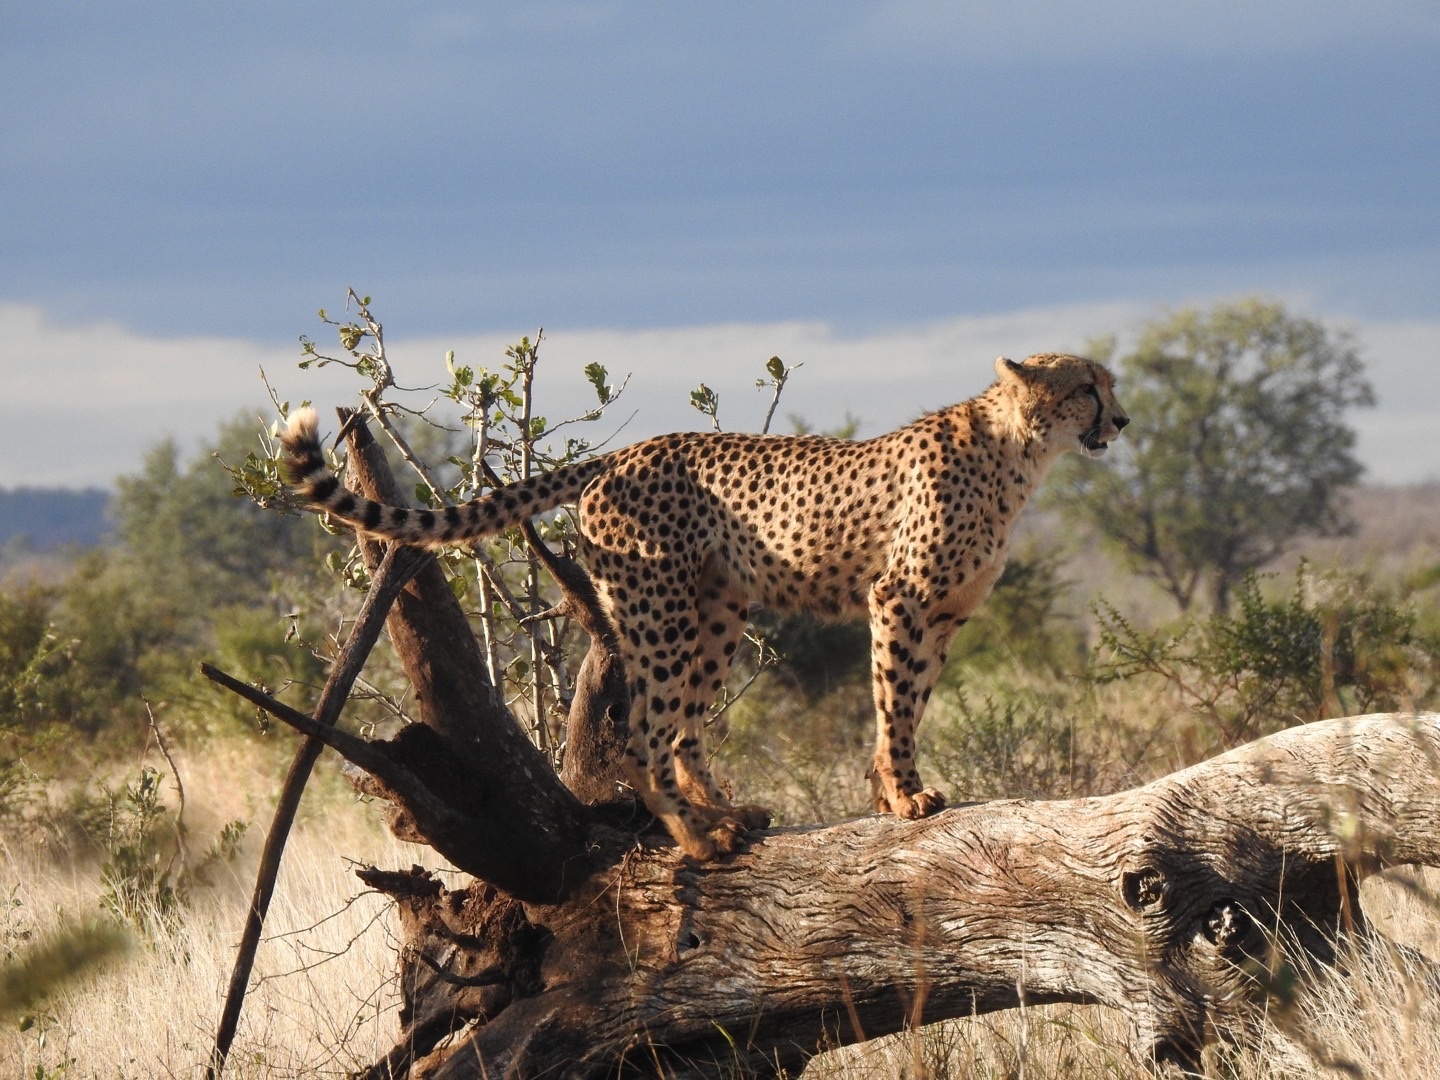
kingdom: Animalia
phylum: Chordata
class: Mammalia
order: Carnivora
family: Felidae
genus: Acinonyx
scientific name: Acinonyx jubatus
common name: Cheetah
